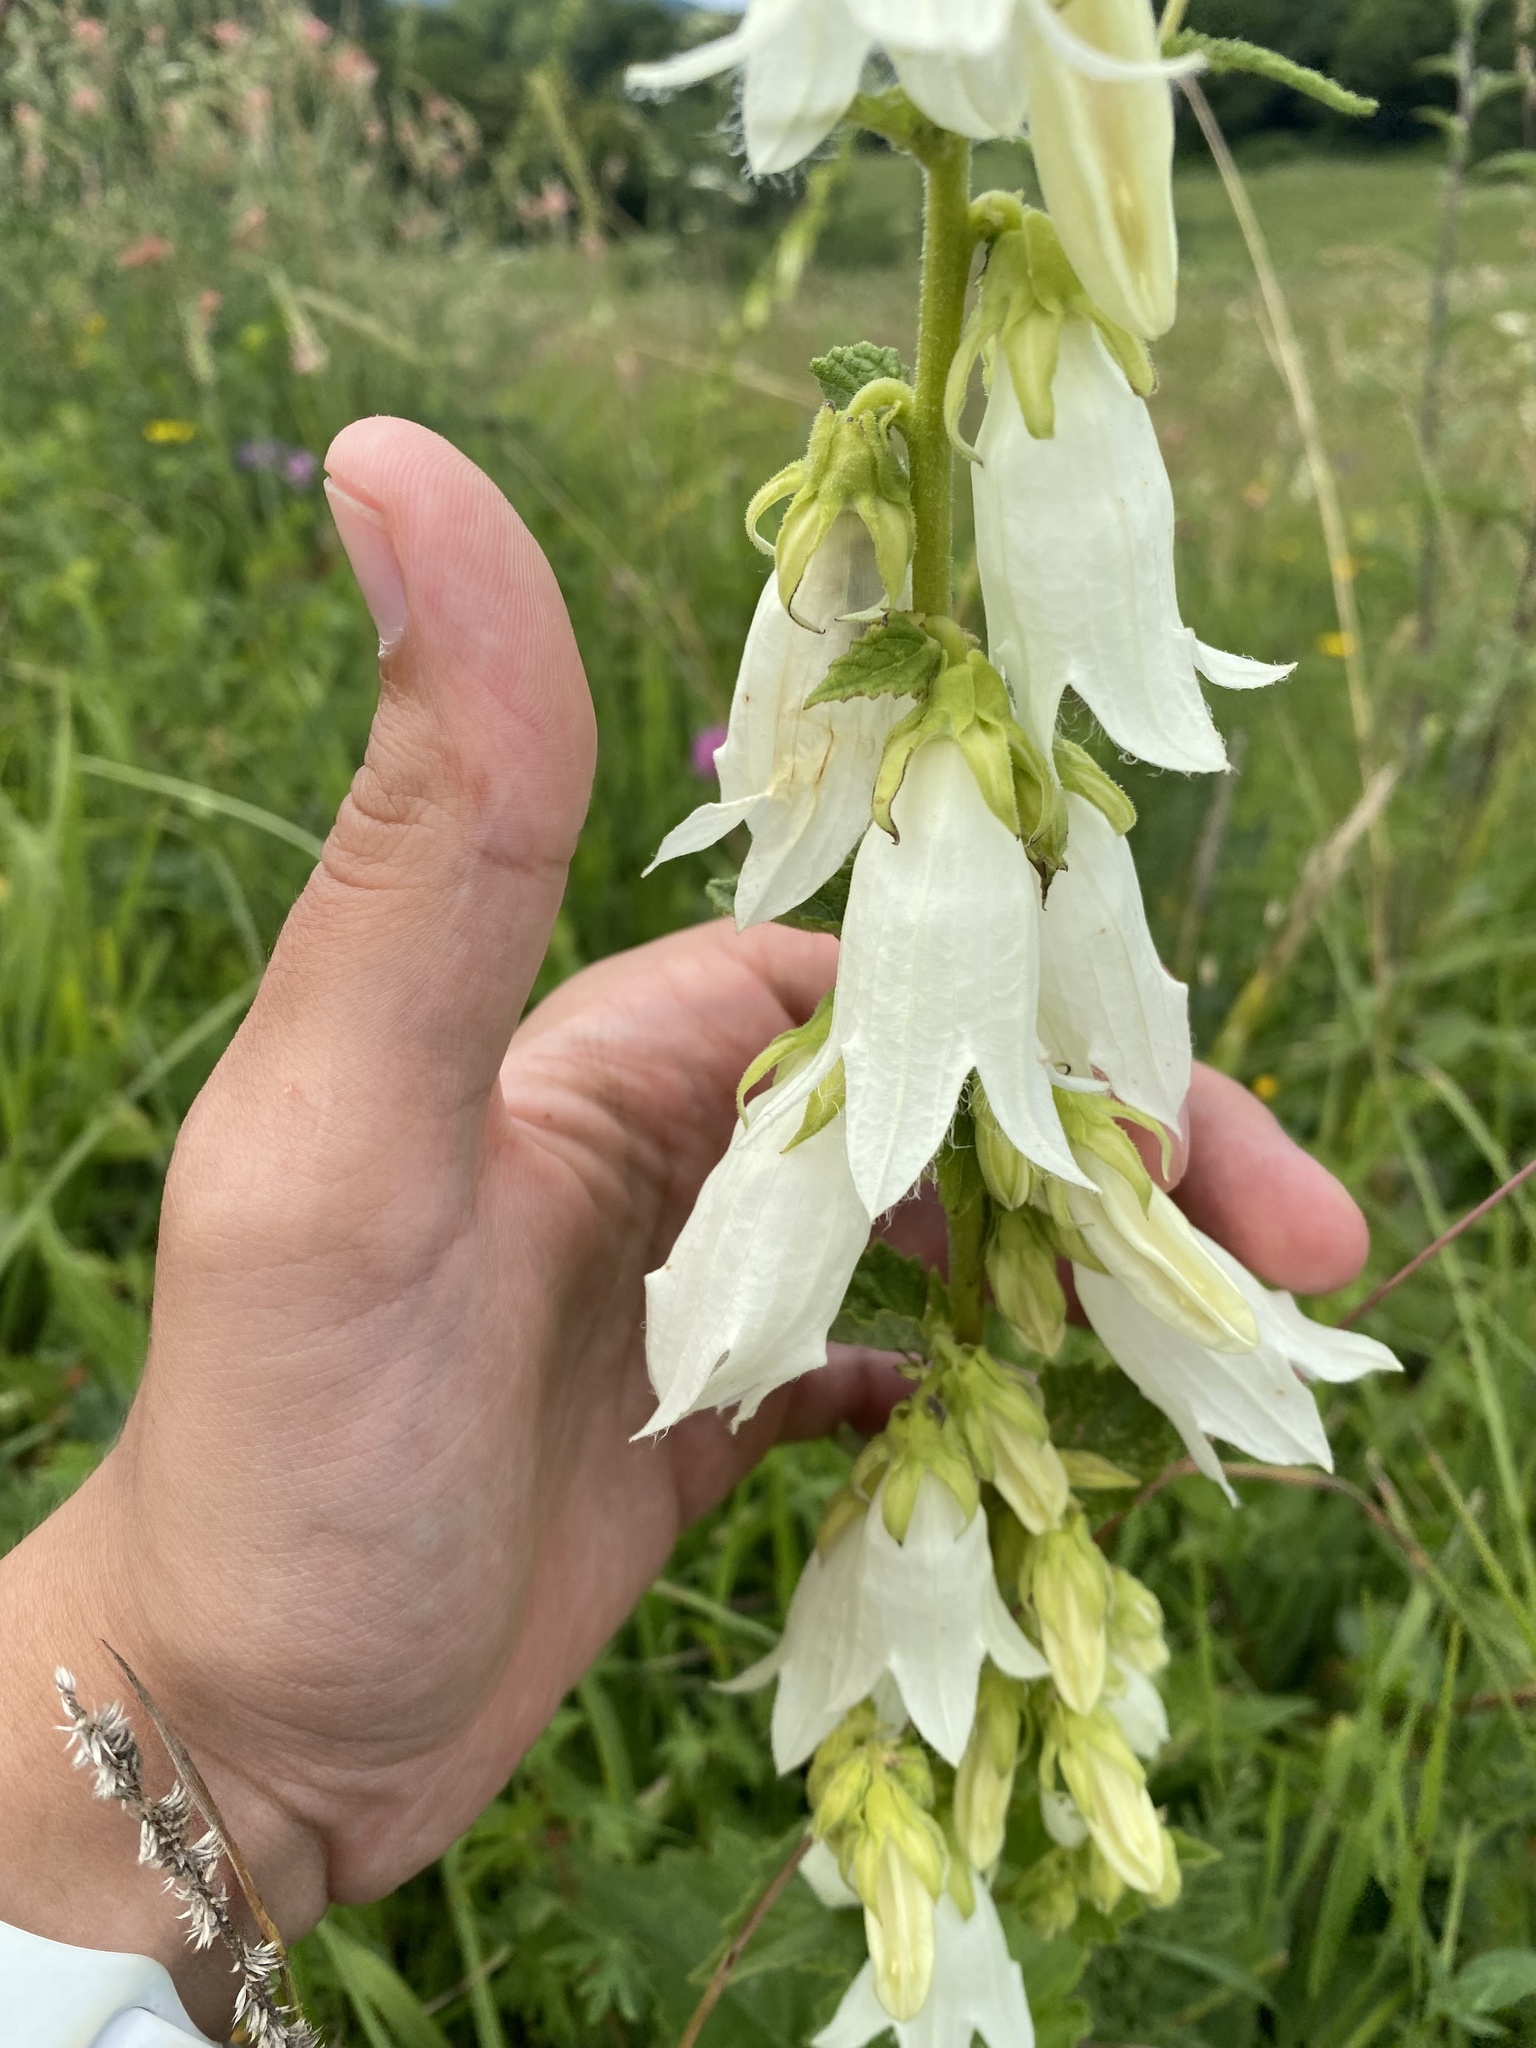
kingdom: Plantae
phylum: Tracheophyta
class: Magnoliopsida
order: Asterales
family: Campanulaceae
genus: Campanula
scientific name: Campanula alliariifolia
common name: Cornish bellflower
